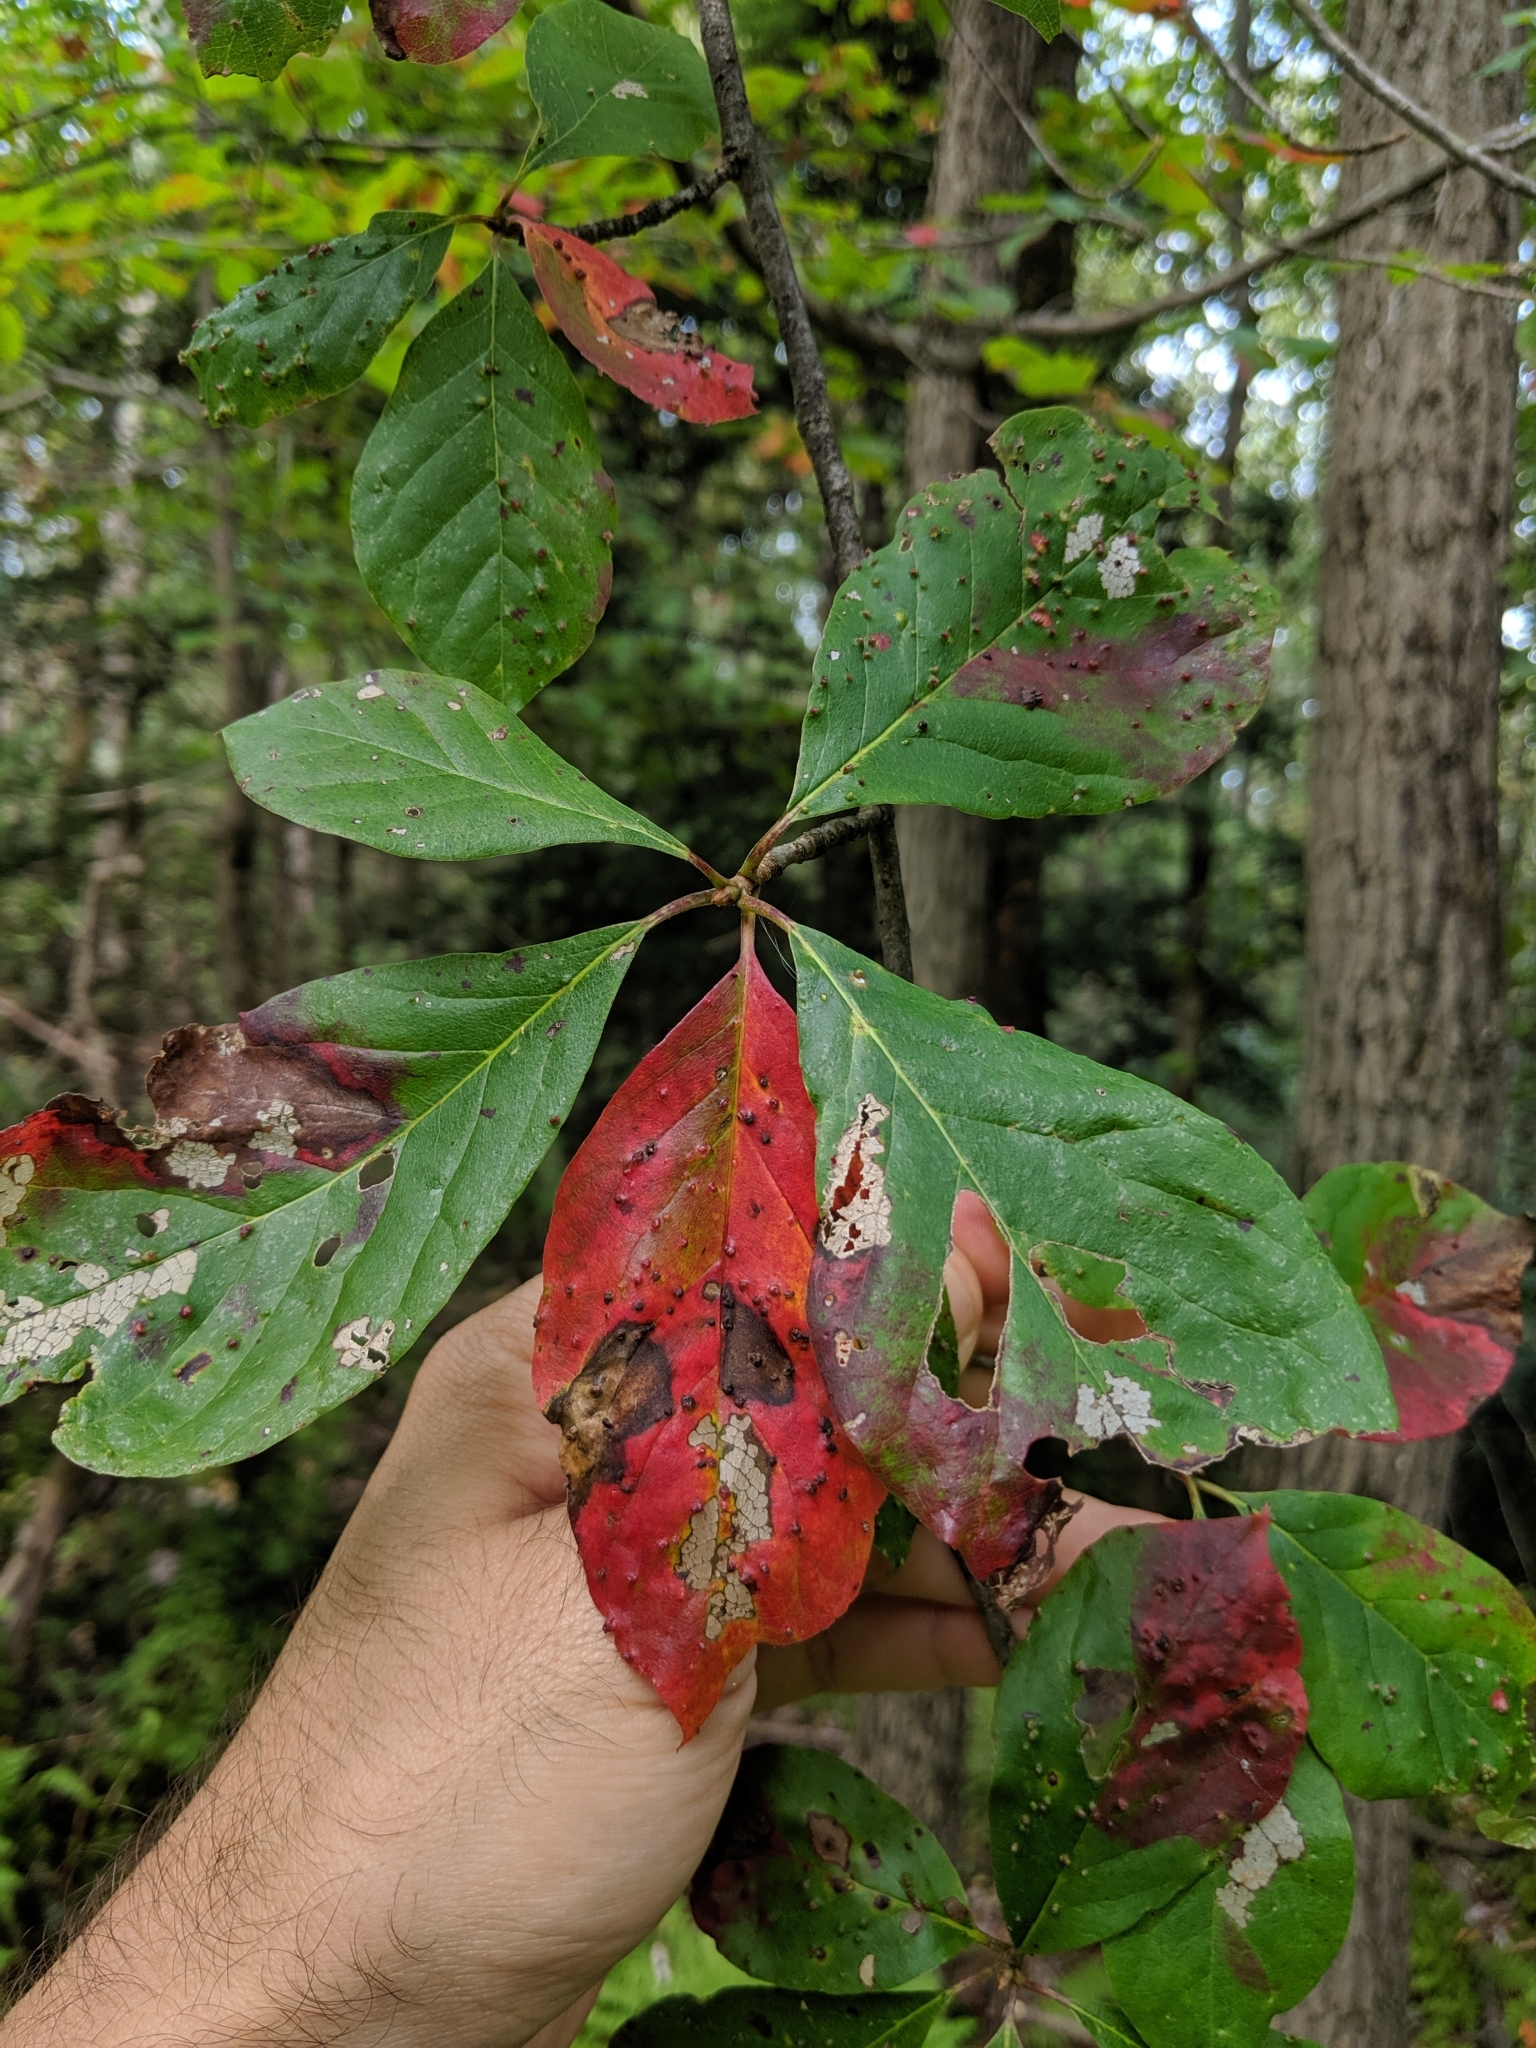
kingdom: Plantae
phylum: Tracheophyta
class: Magnoliopsida
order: Cornales
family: Nyssaceae
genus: Nyssa
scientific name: Nyssa sylvatica
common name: Black tupelo
